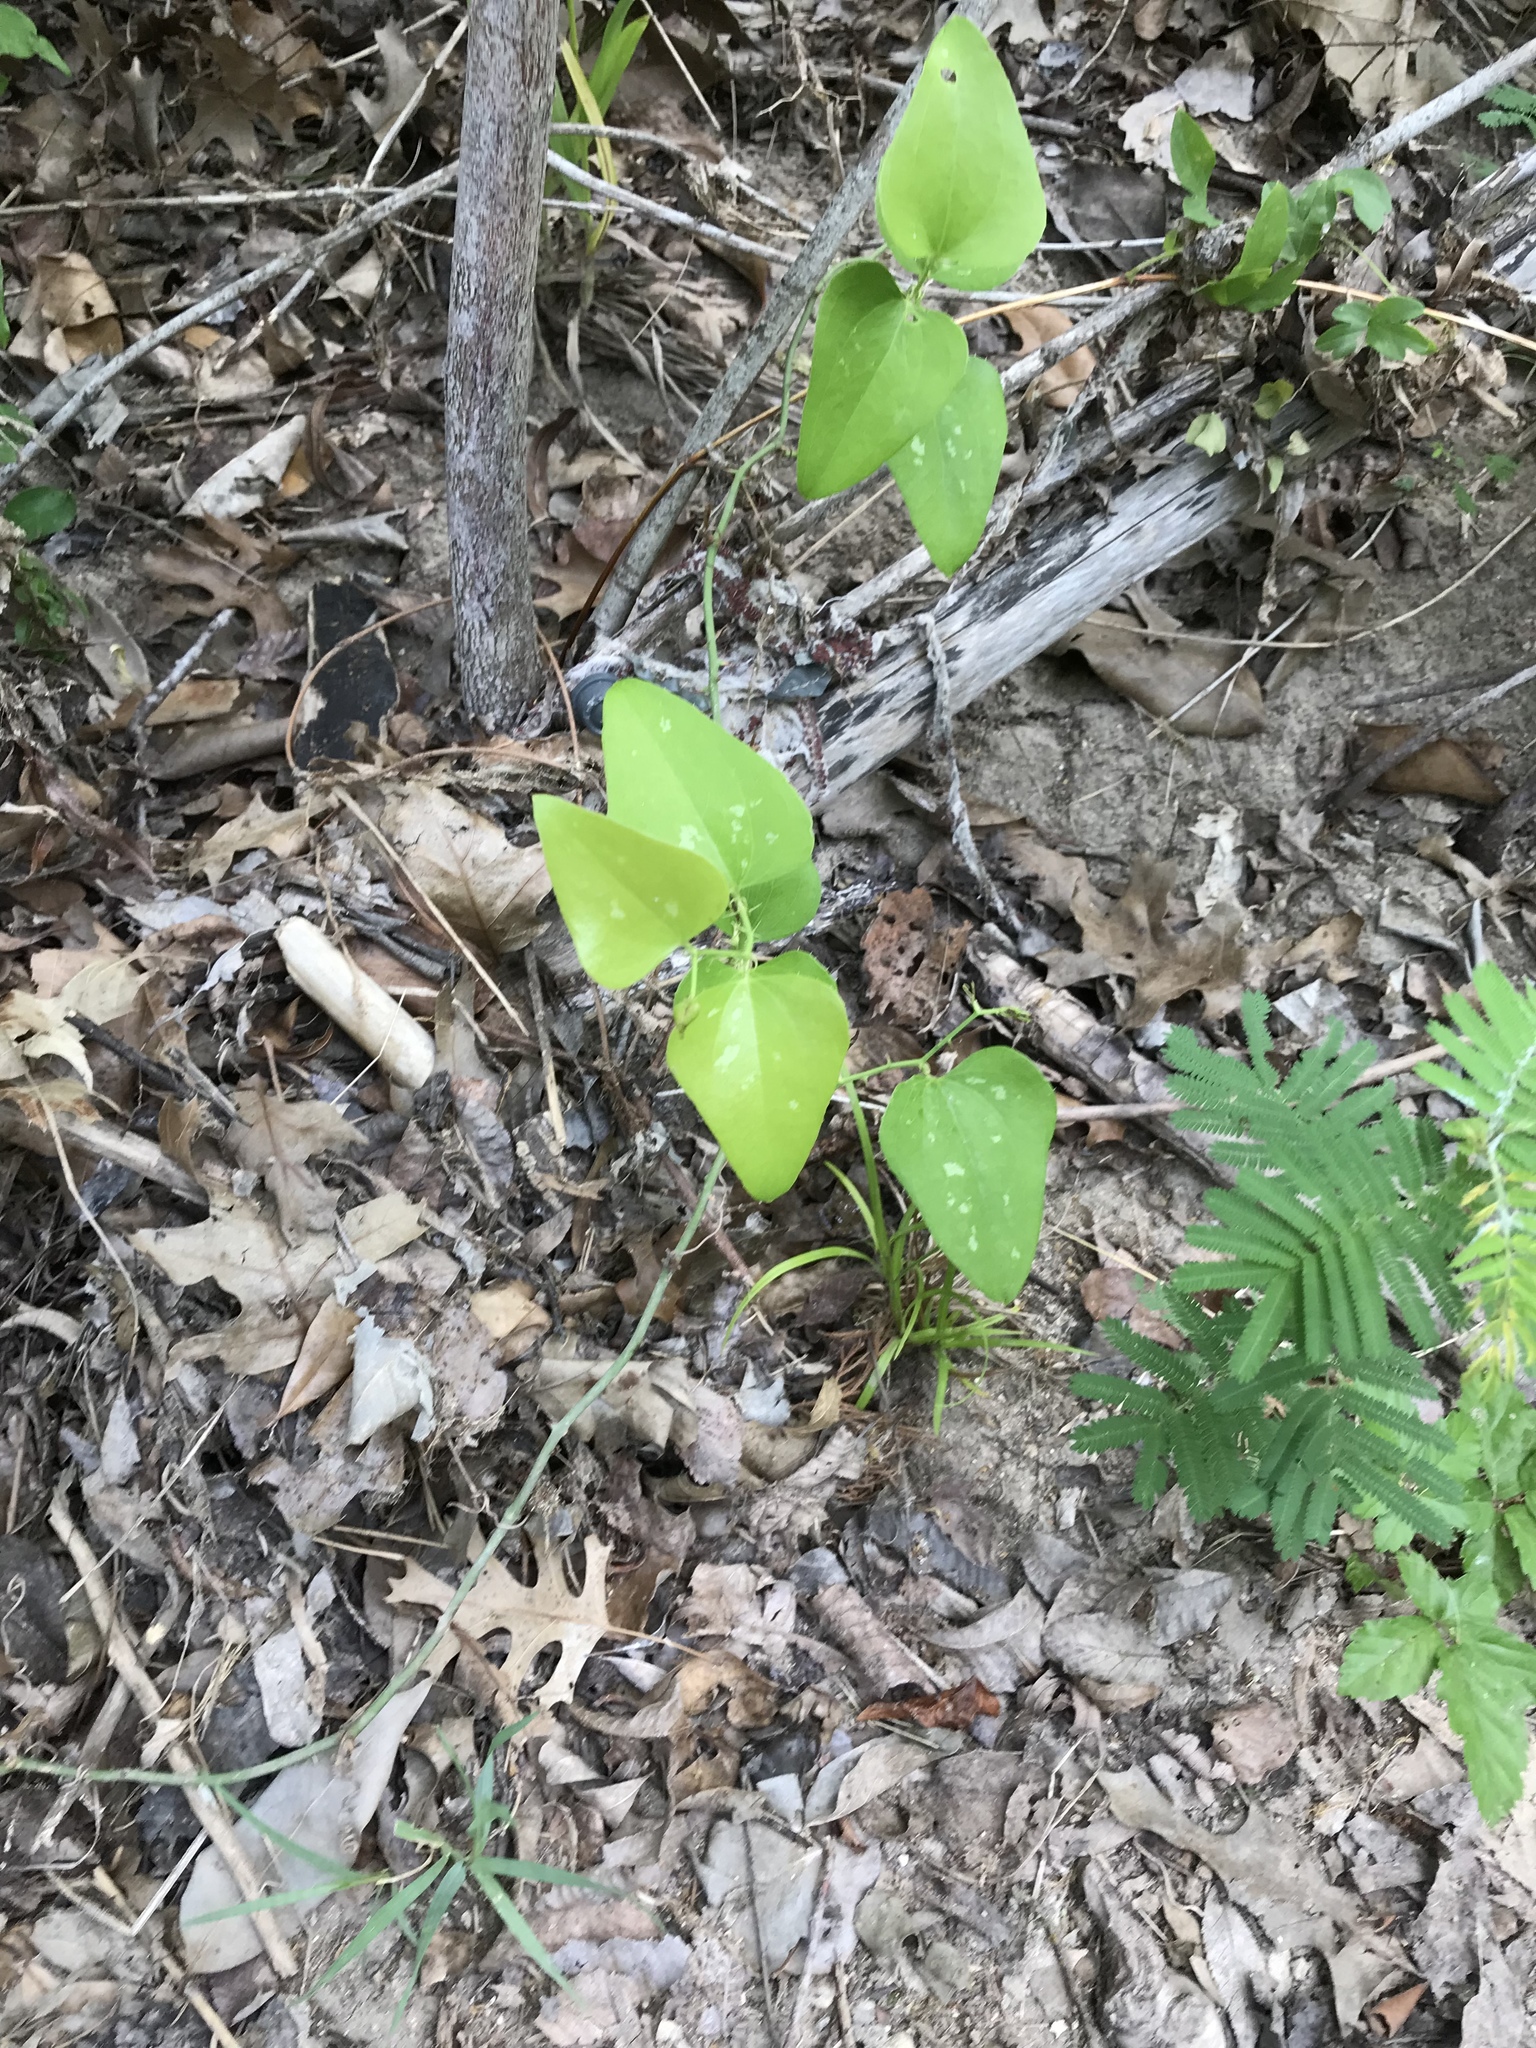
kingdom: Plantae
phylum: Tracheophyta
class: Liliopsida
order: Liliales
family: Smilacaceae
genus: Smilax
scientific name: Smilax bona-nox
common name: Catbrier
